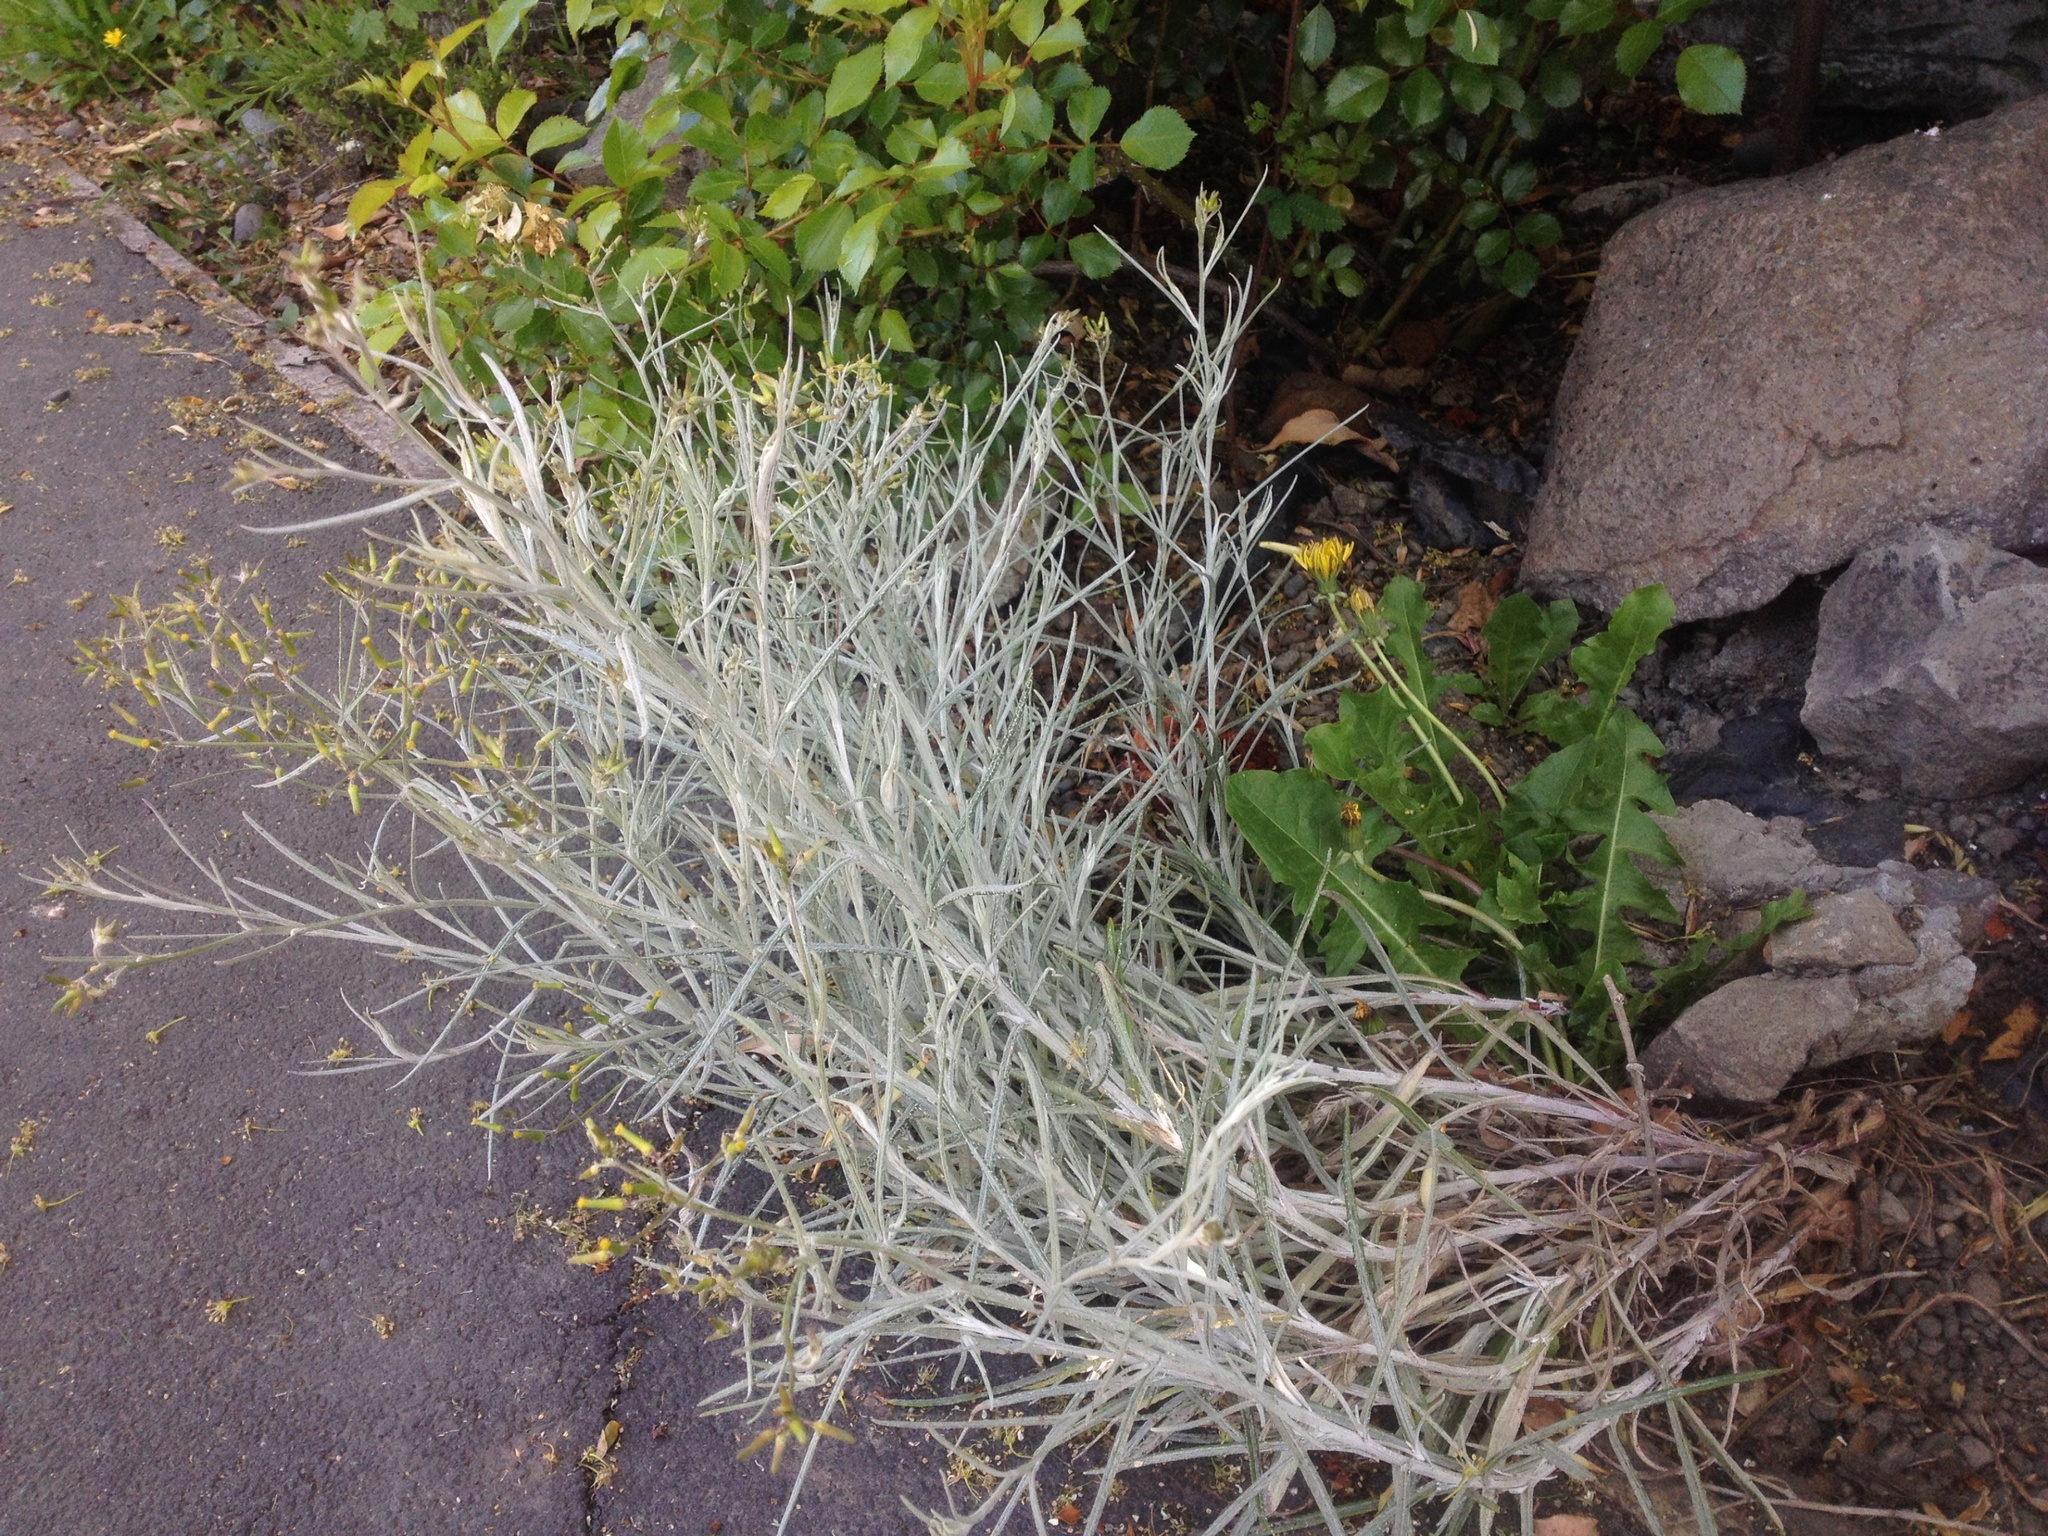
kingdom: Plantae
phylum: Tracheophyta
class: Magnoliopsida
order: Asterales
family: Asteraceae
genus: Senecio
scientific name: Senecio quadridentatus
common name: Cotton fireweed
